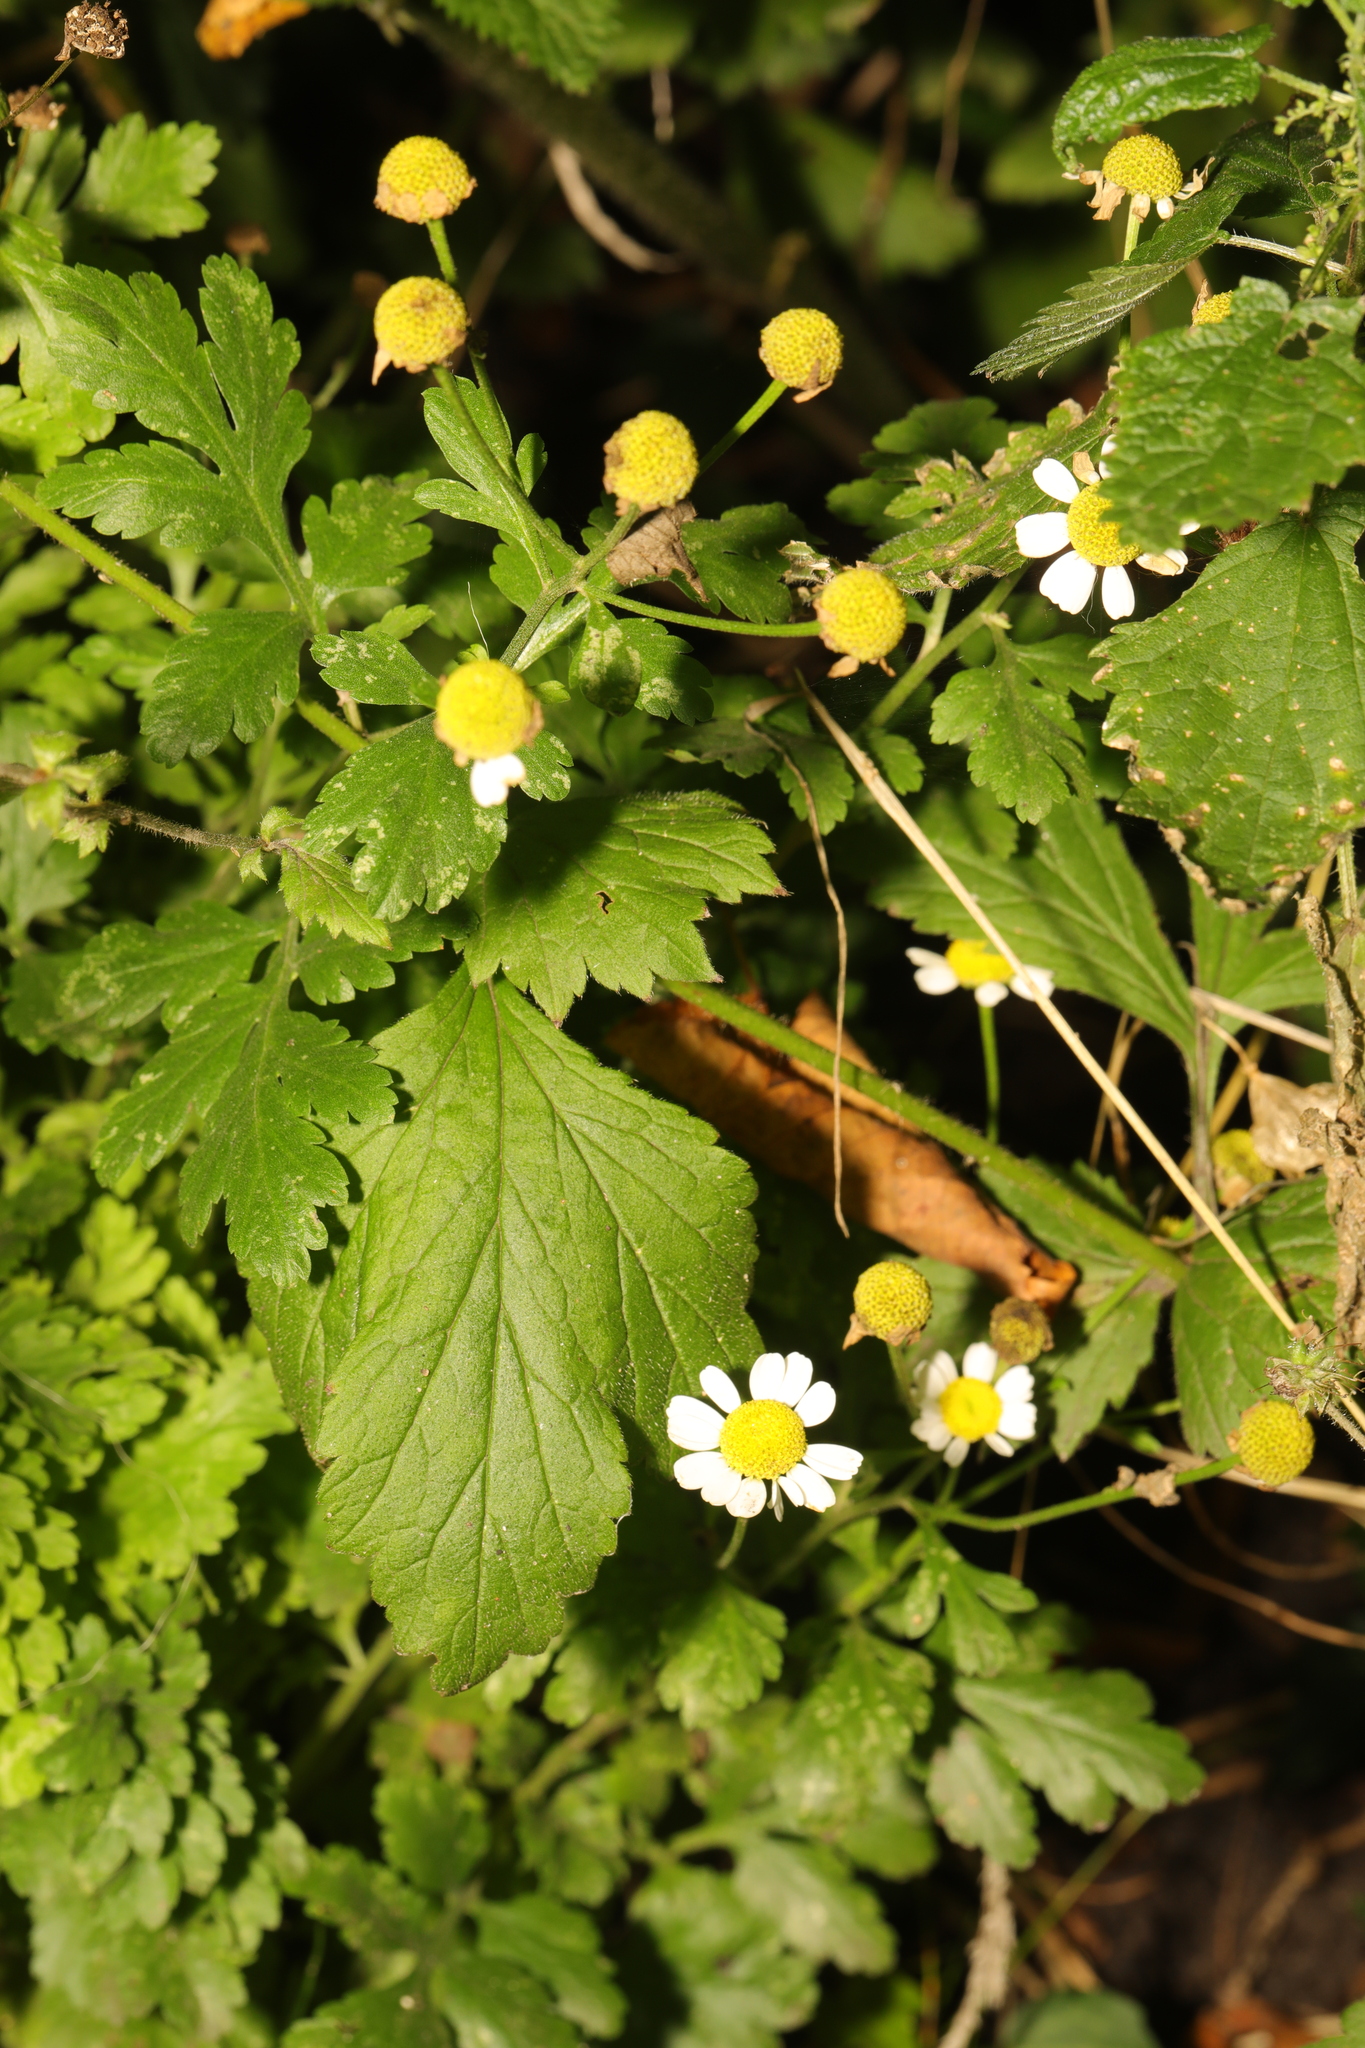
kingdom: Plantae
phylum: Tracheophyta
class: Magnoliopsida
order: Asterales
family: Asteraceae
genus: Tanacetum
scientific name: Tanacetum parthenium
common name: Feverfew
